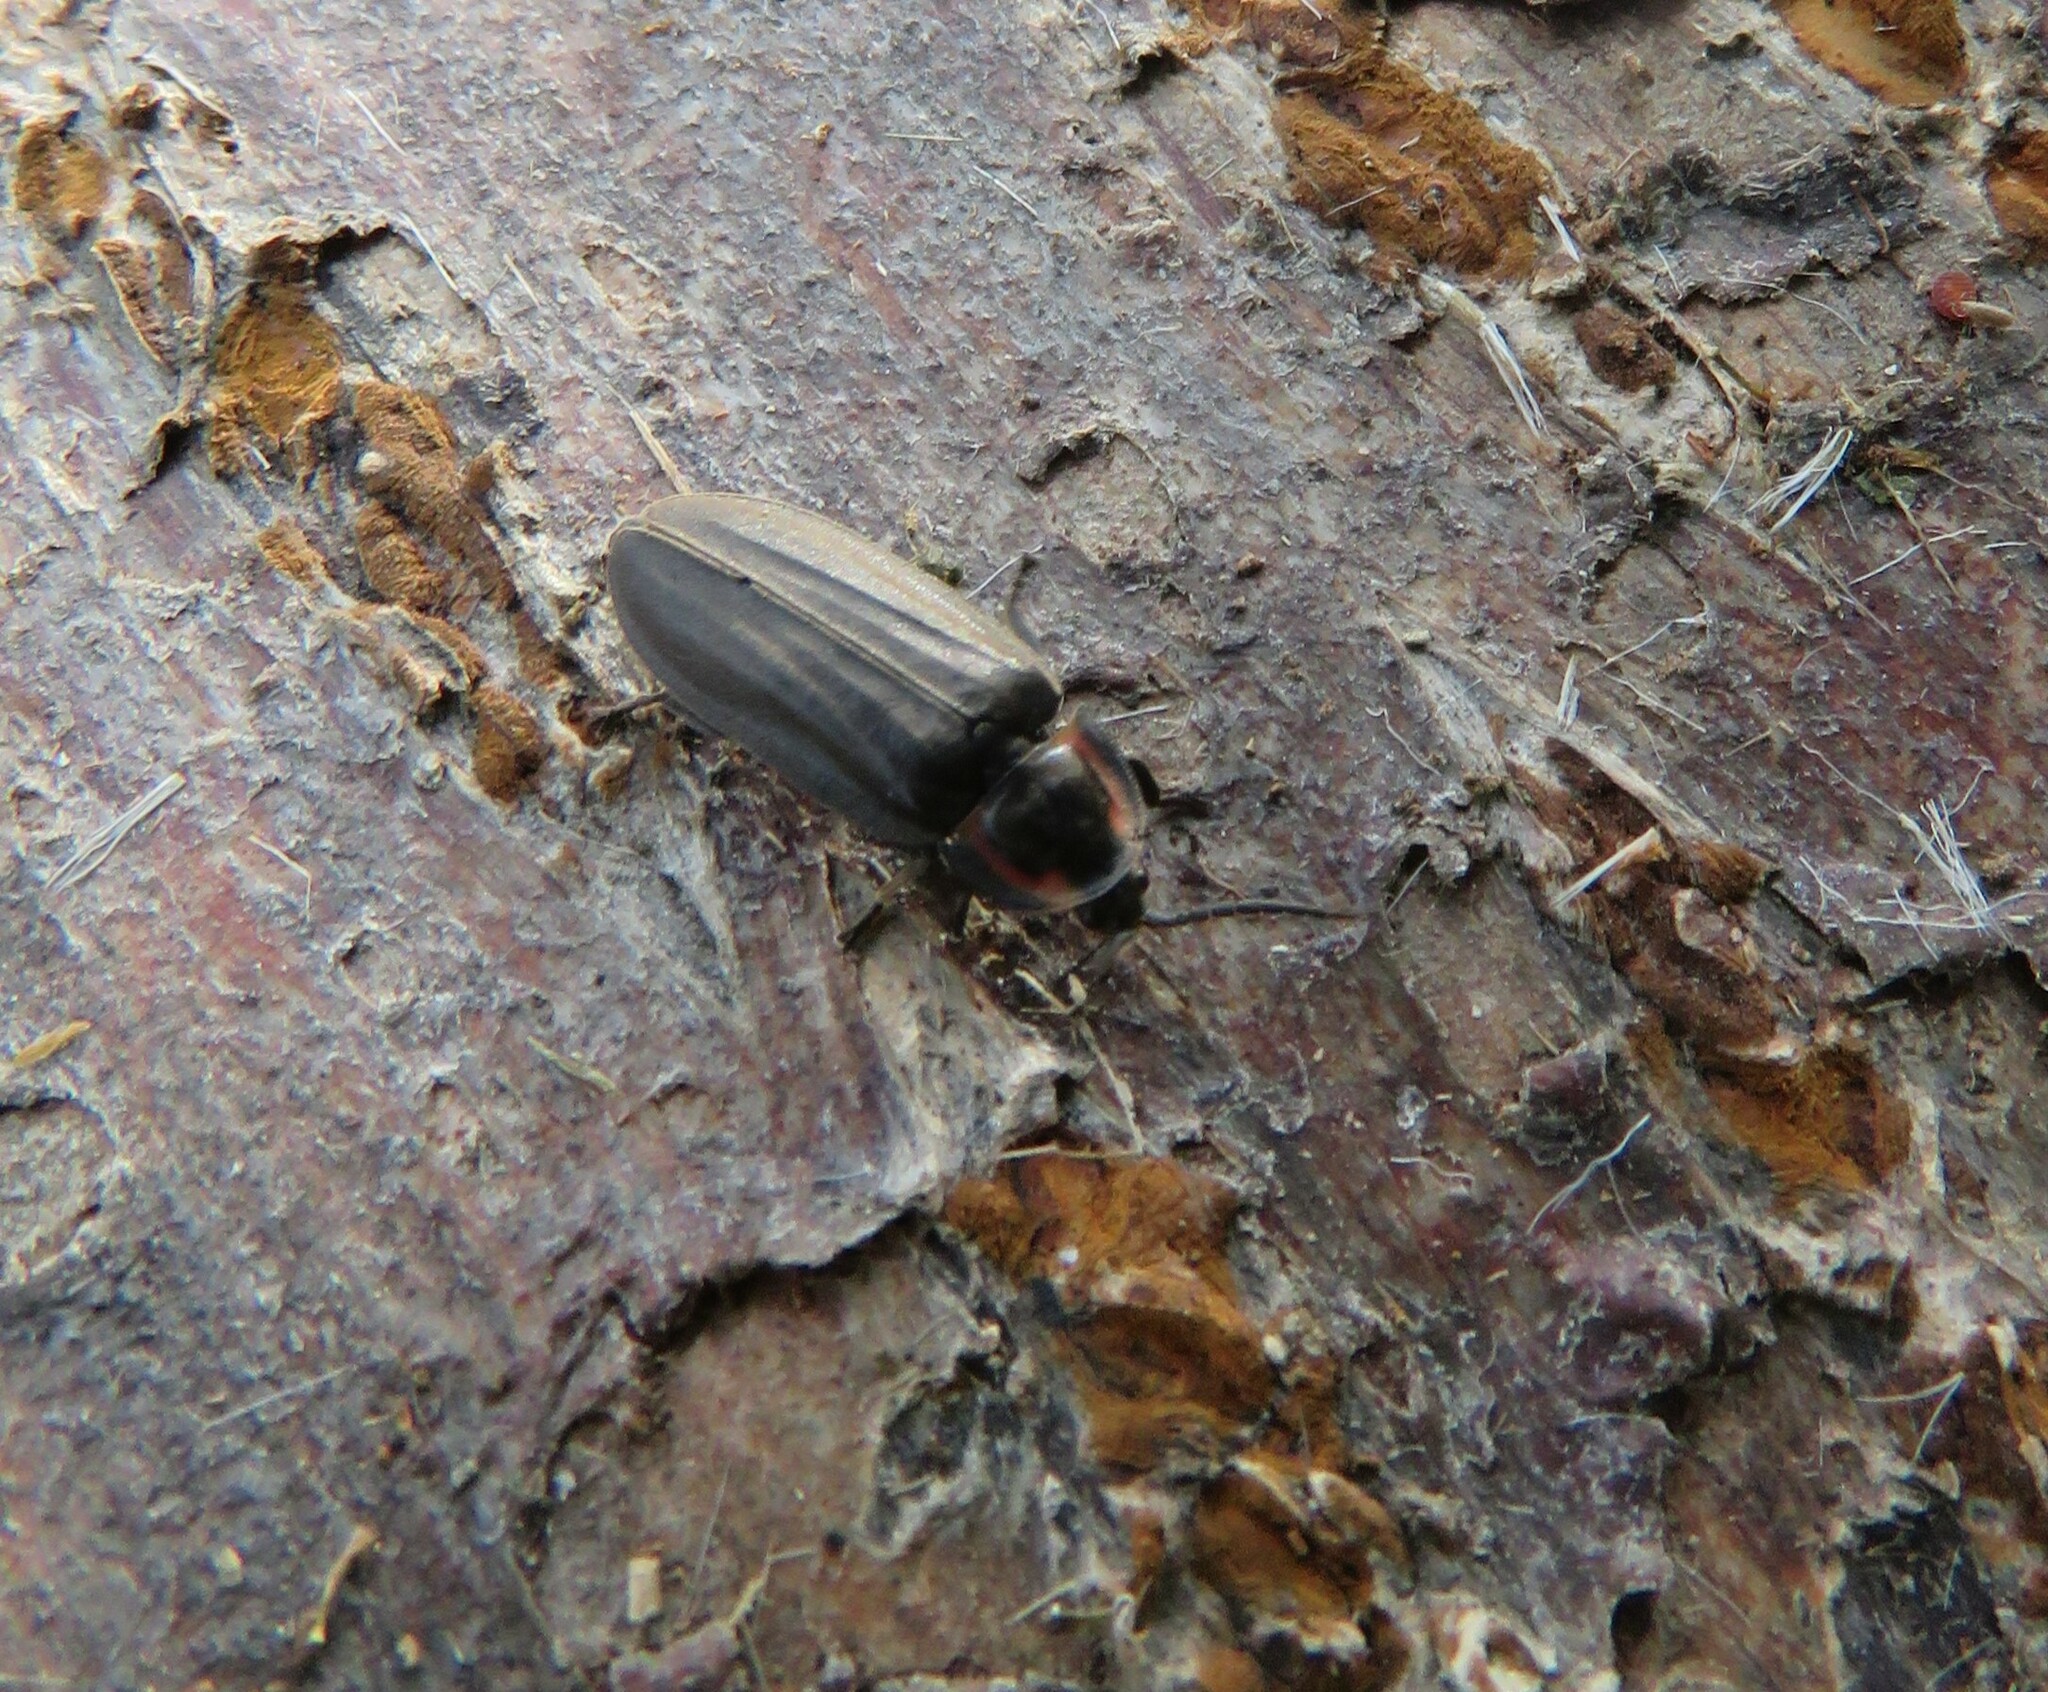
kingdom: Animalia
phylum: Arthropoda
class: Insecta
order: Coleoptera
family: Lampyridae
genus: Photinus
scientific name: Photinus corrusca
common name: Winter firefly
